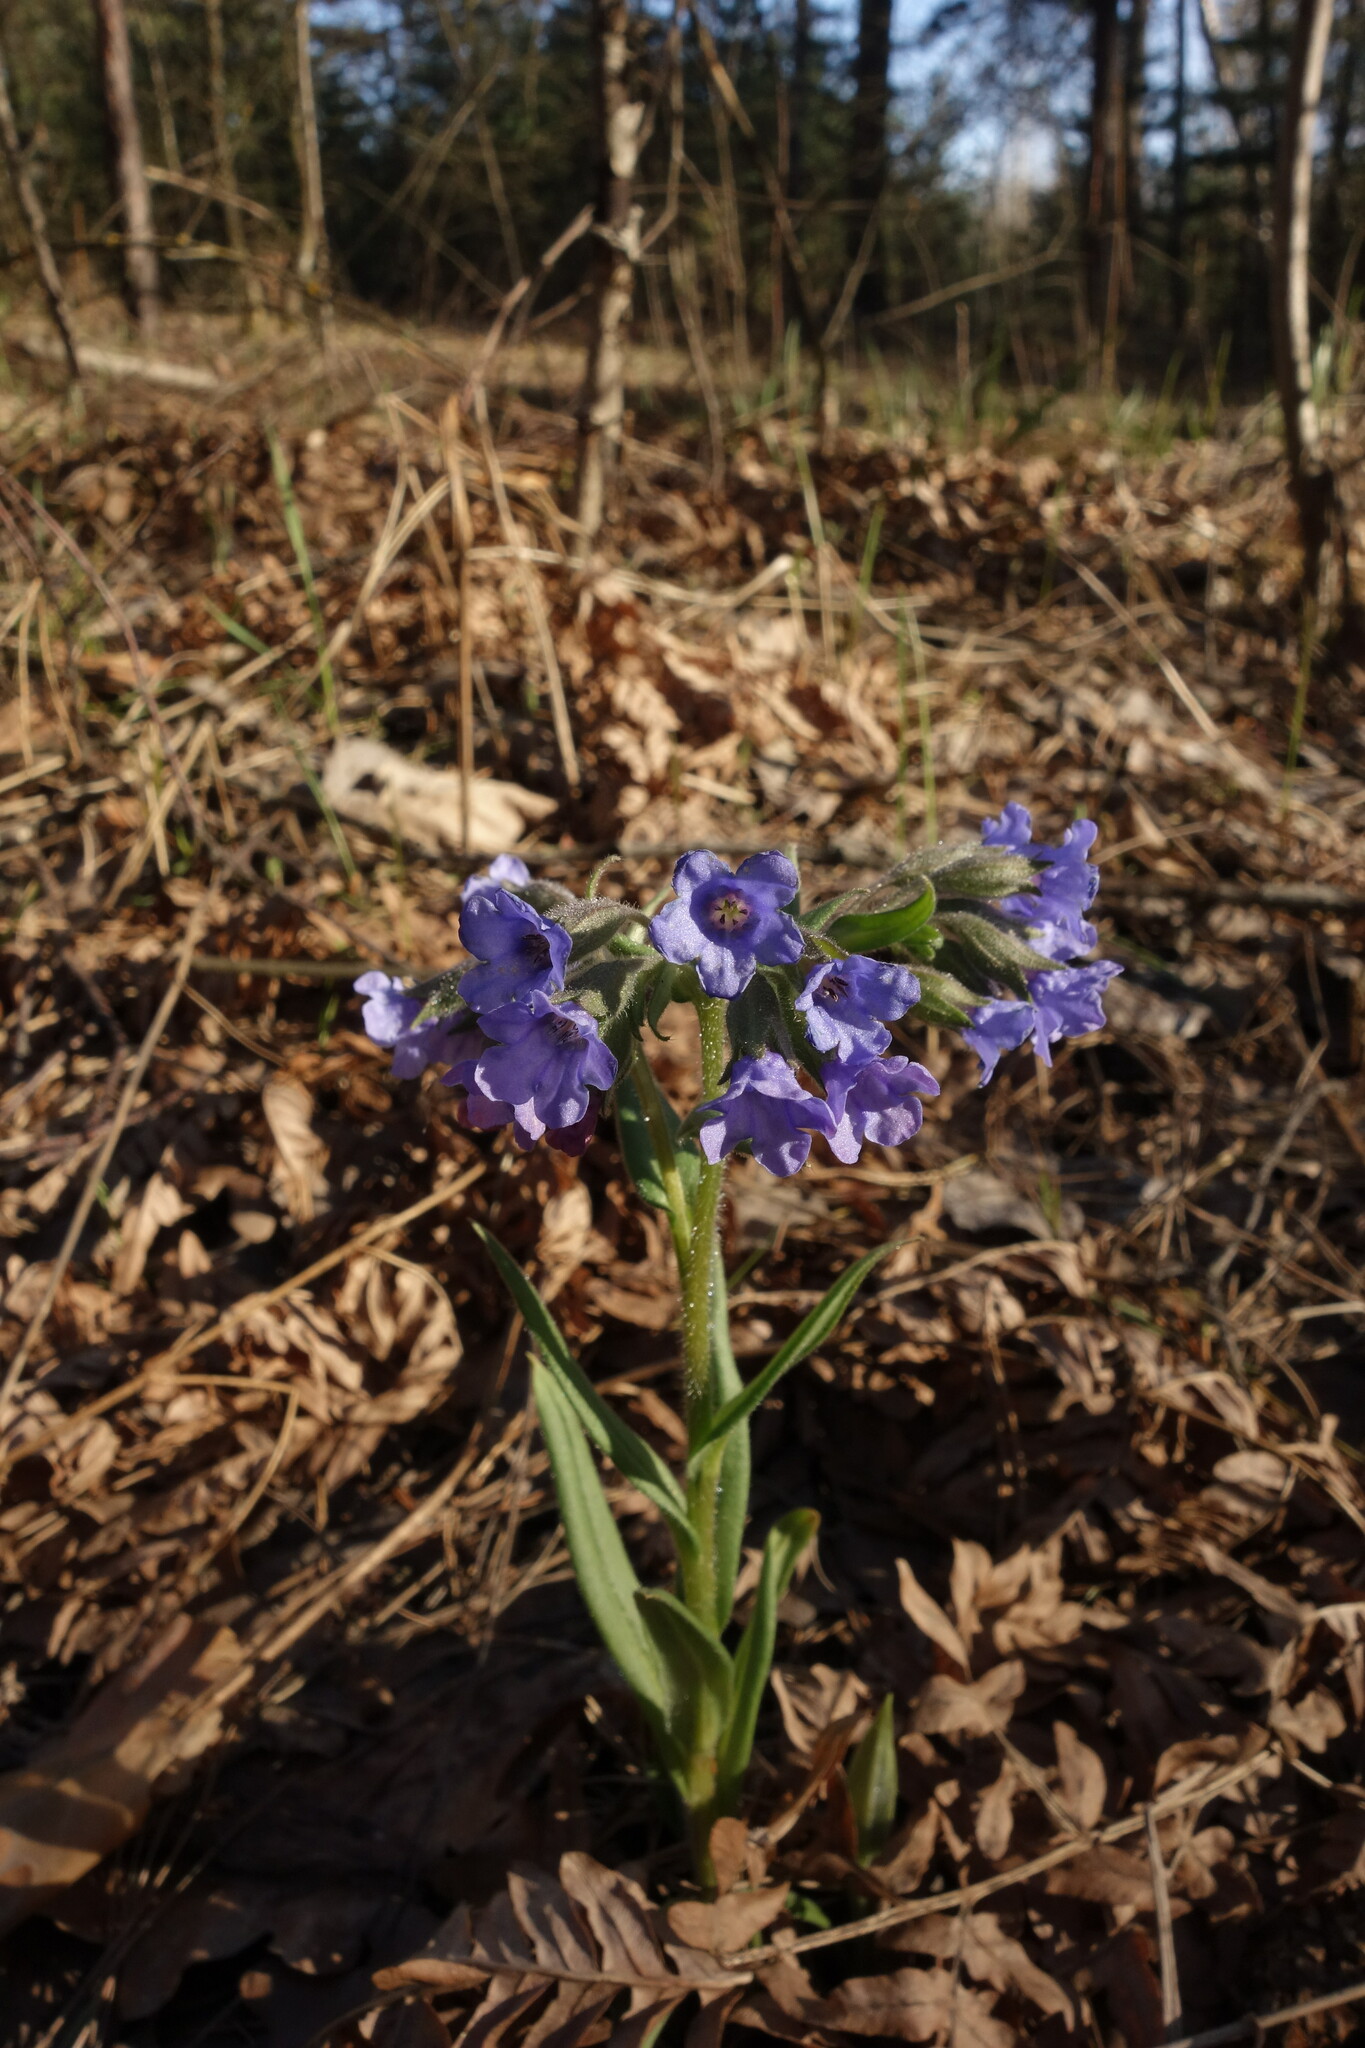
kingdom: Plantae
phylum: Tracheophyta
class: Magnoliopsida
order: Boraginales
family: Boraginaceae
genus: Pulmonaria
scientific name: Pulmonaria angustifolia
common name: Blue cowslip
